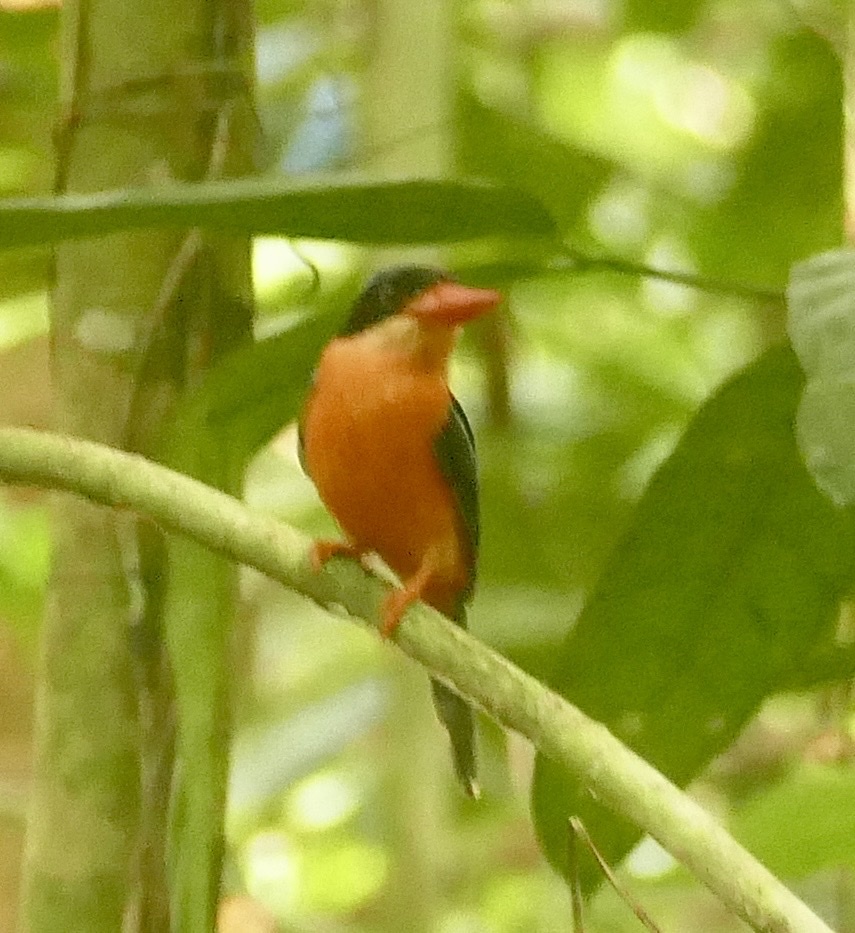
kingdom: Animalia
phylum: Chordata
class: Aves
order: Coraciiformes
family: Alcedinidae
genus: Tanysiptera
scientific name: Tanysiptera nympha
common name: Red-breasted paradise-kingfisher
